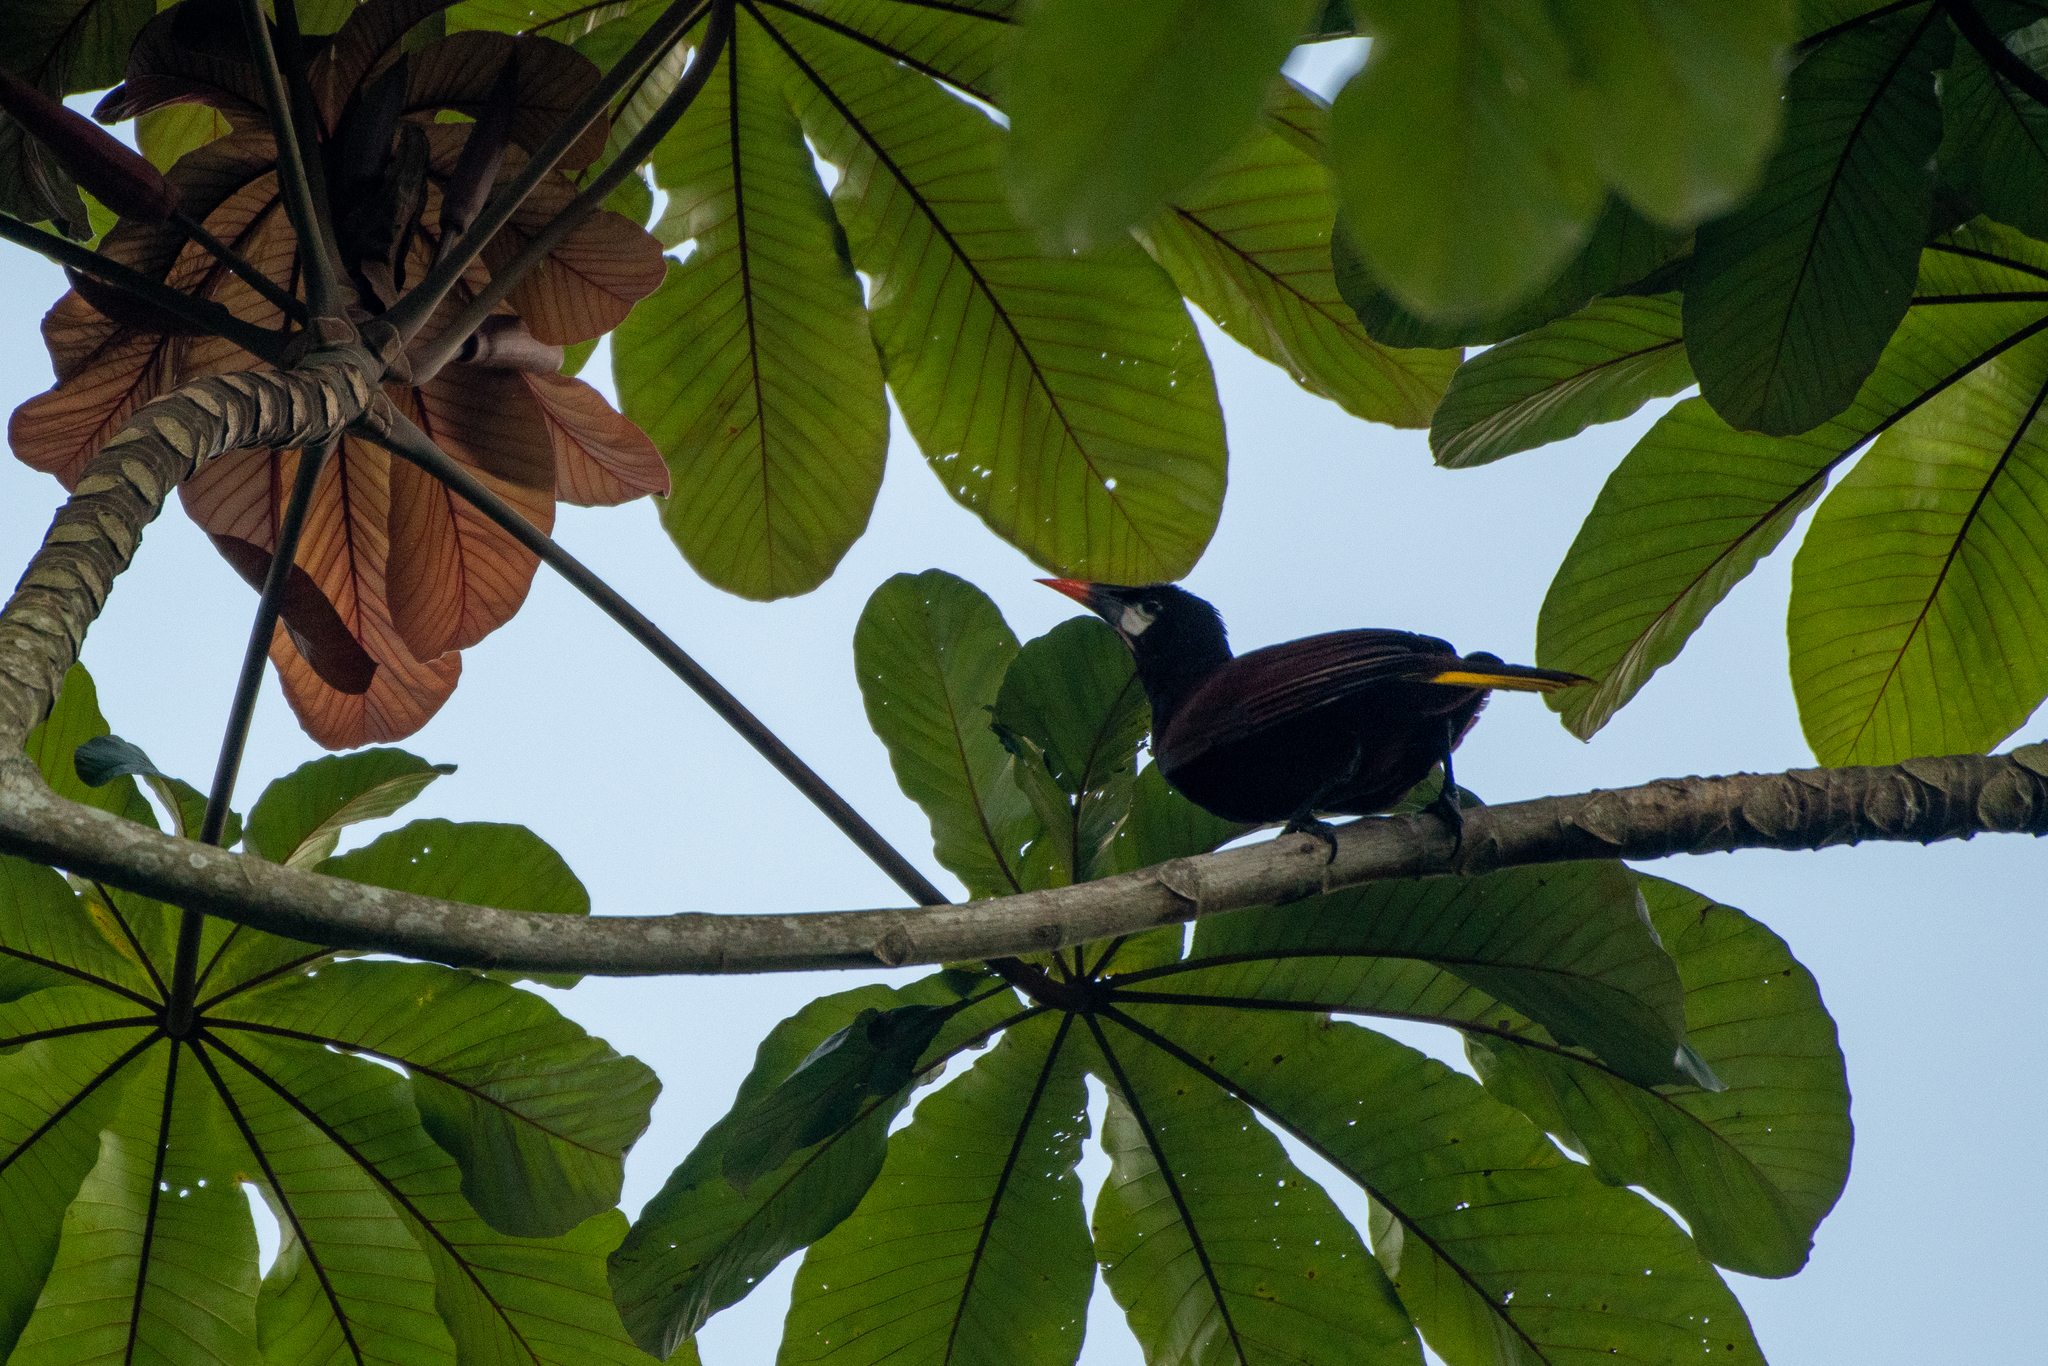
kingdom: Animalia
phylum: Chordata
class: Aves
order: Passeriformes
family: Icteridae
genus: Psarocolius
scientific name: Psarocolius montezuma
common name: Montezuma oropendola
